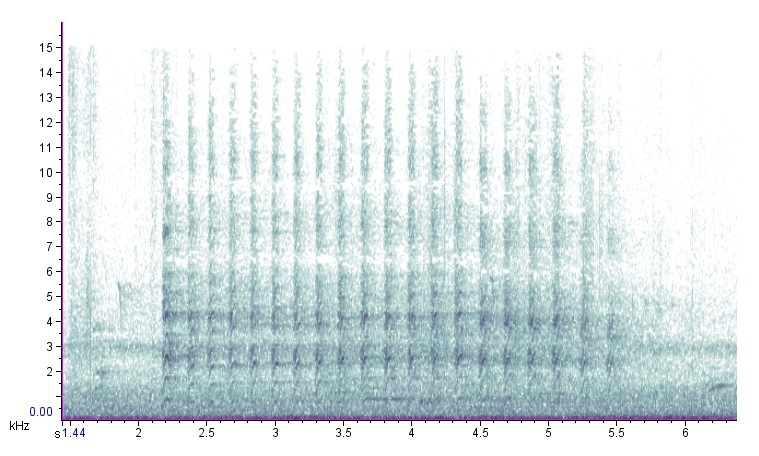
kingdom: Animalia
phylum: Chordata
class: Aves
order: Accipitriformes
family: Accipitridae
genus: Accipiter
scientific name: Accipiter cooperii
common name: Cooper's hawk
